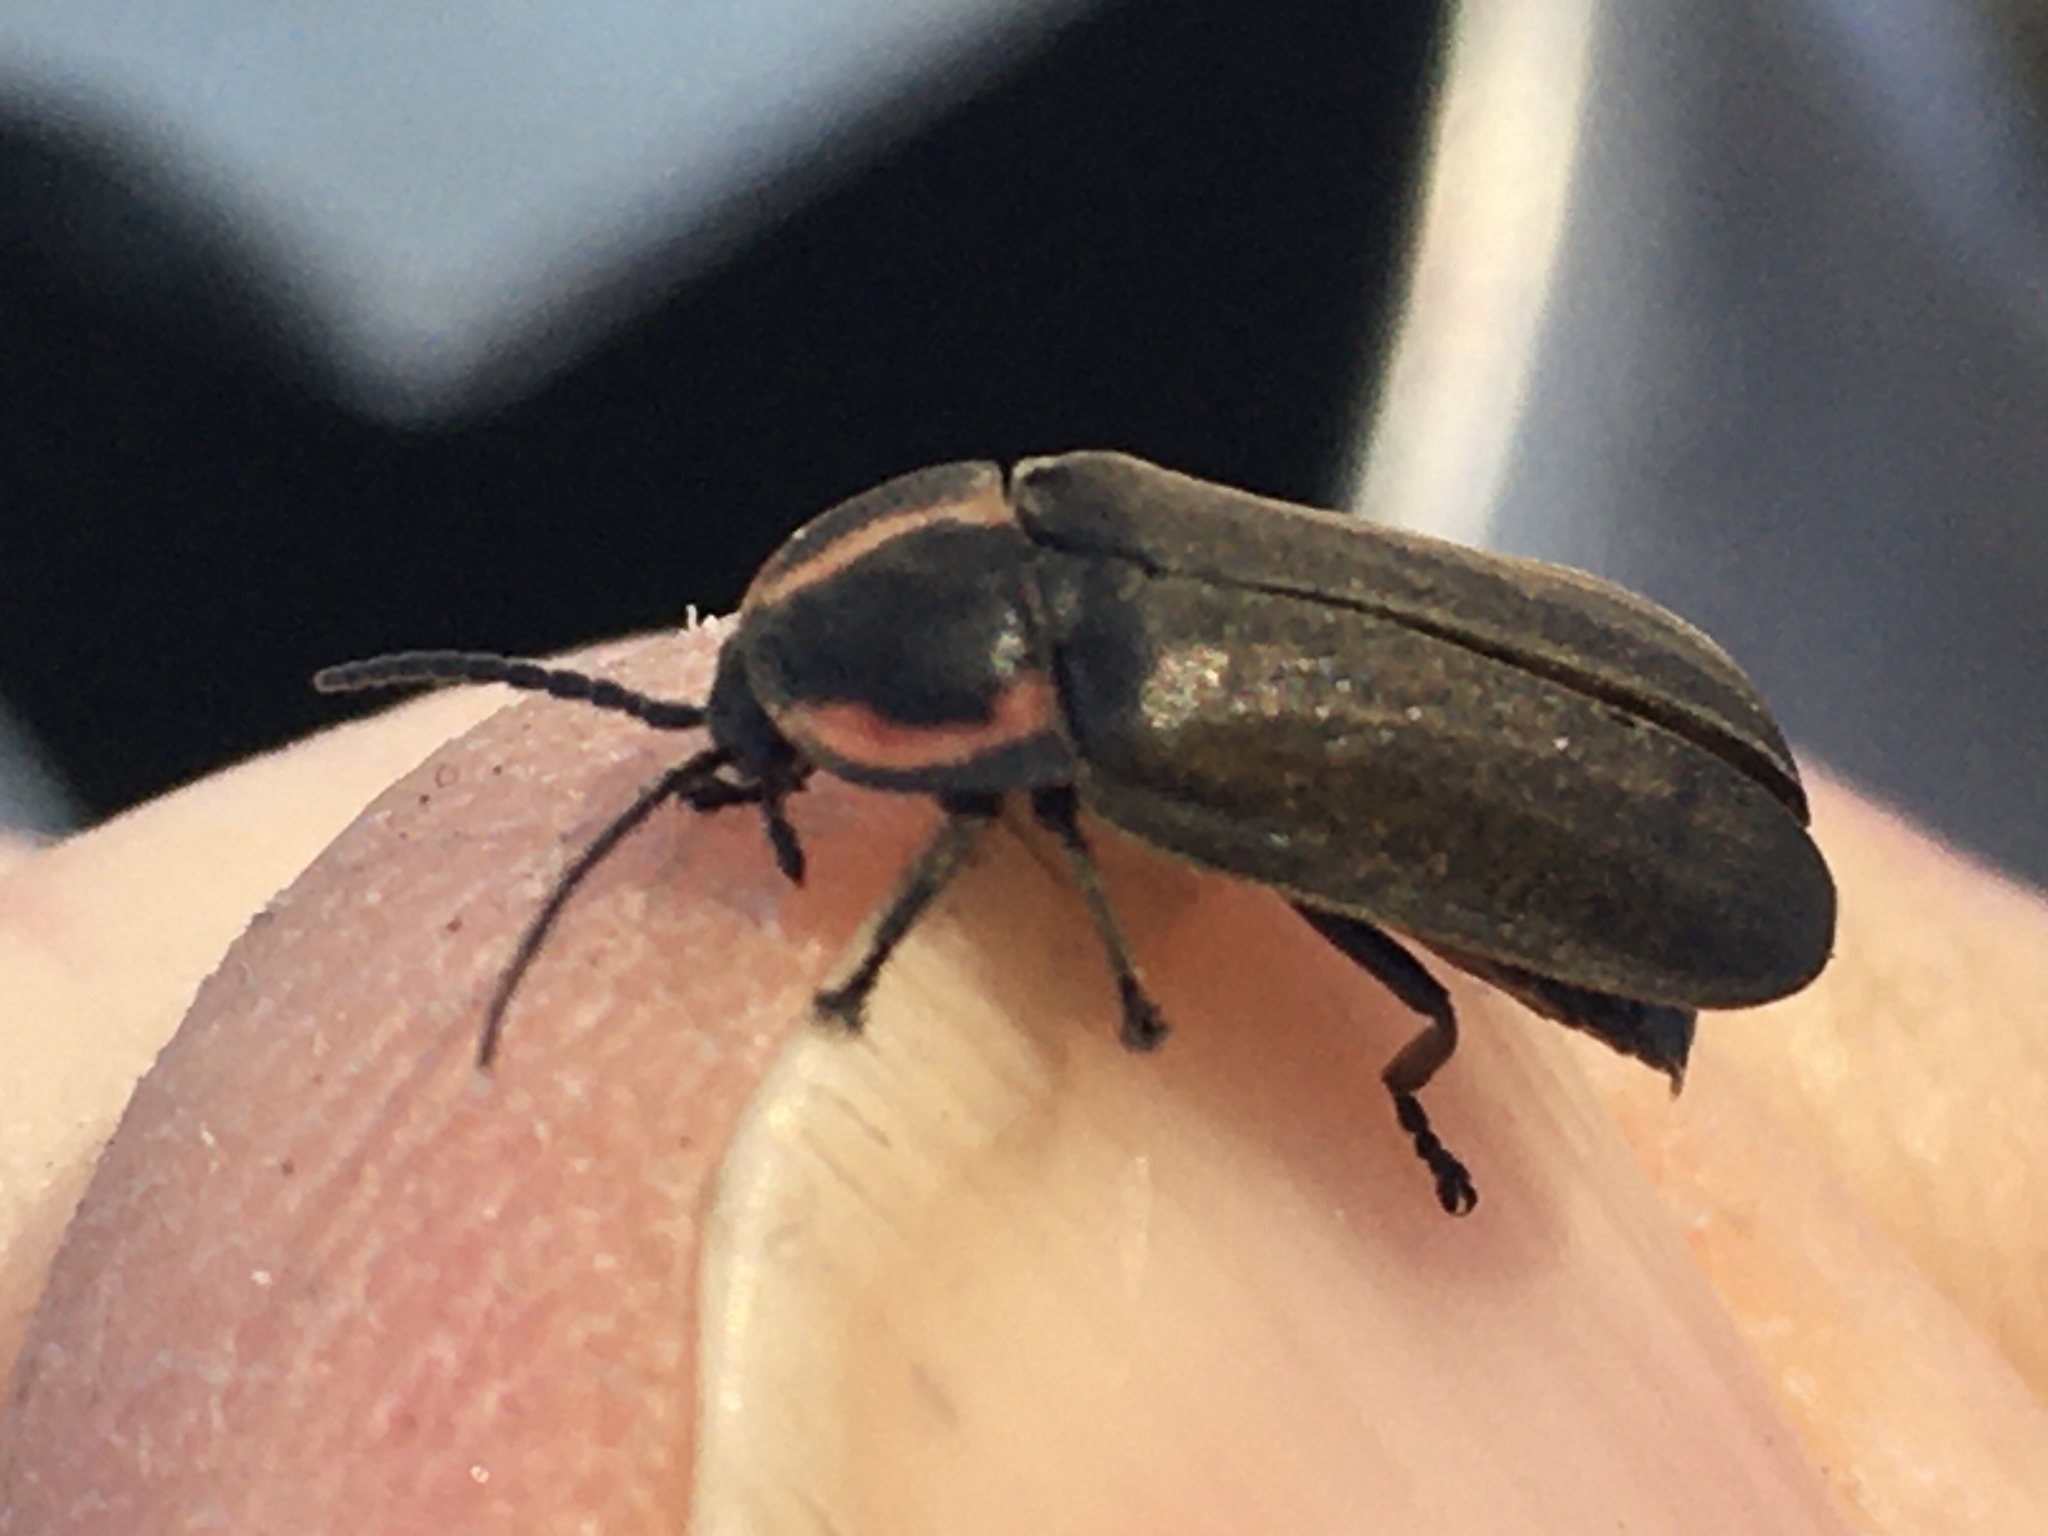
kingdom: Animalia
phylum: Arthropoda
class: Insecta
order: Coleoptera
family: Lampyridae
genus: Photinus
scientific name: Photinus corrusca
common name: Winter firefly
